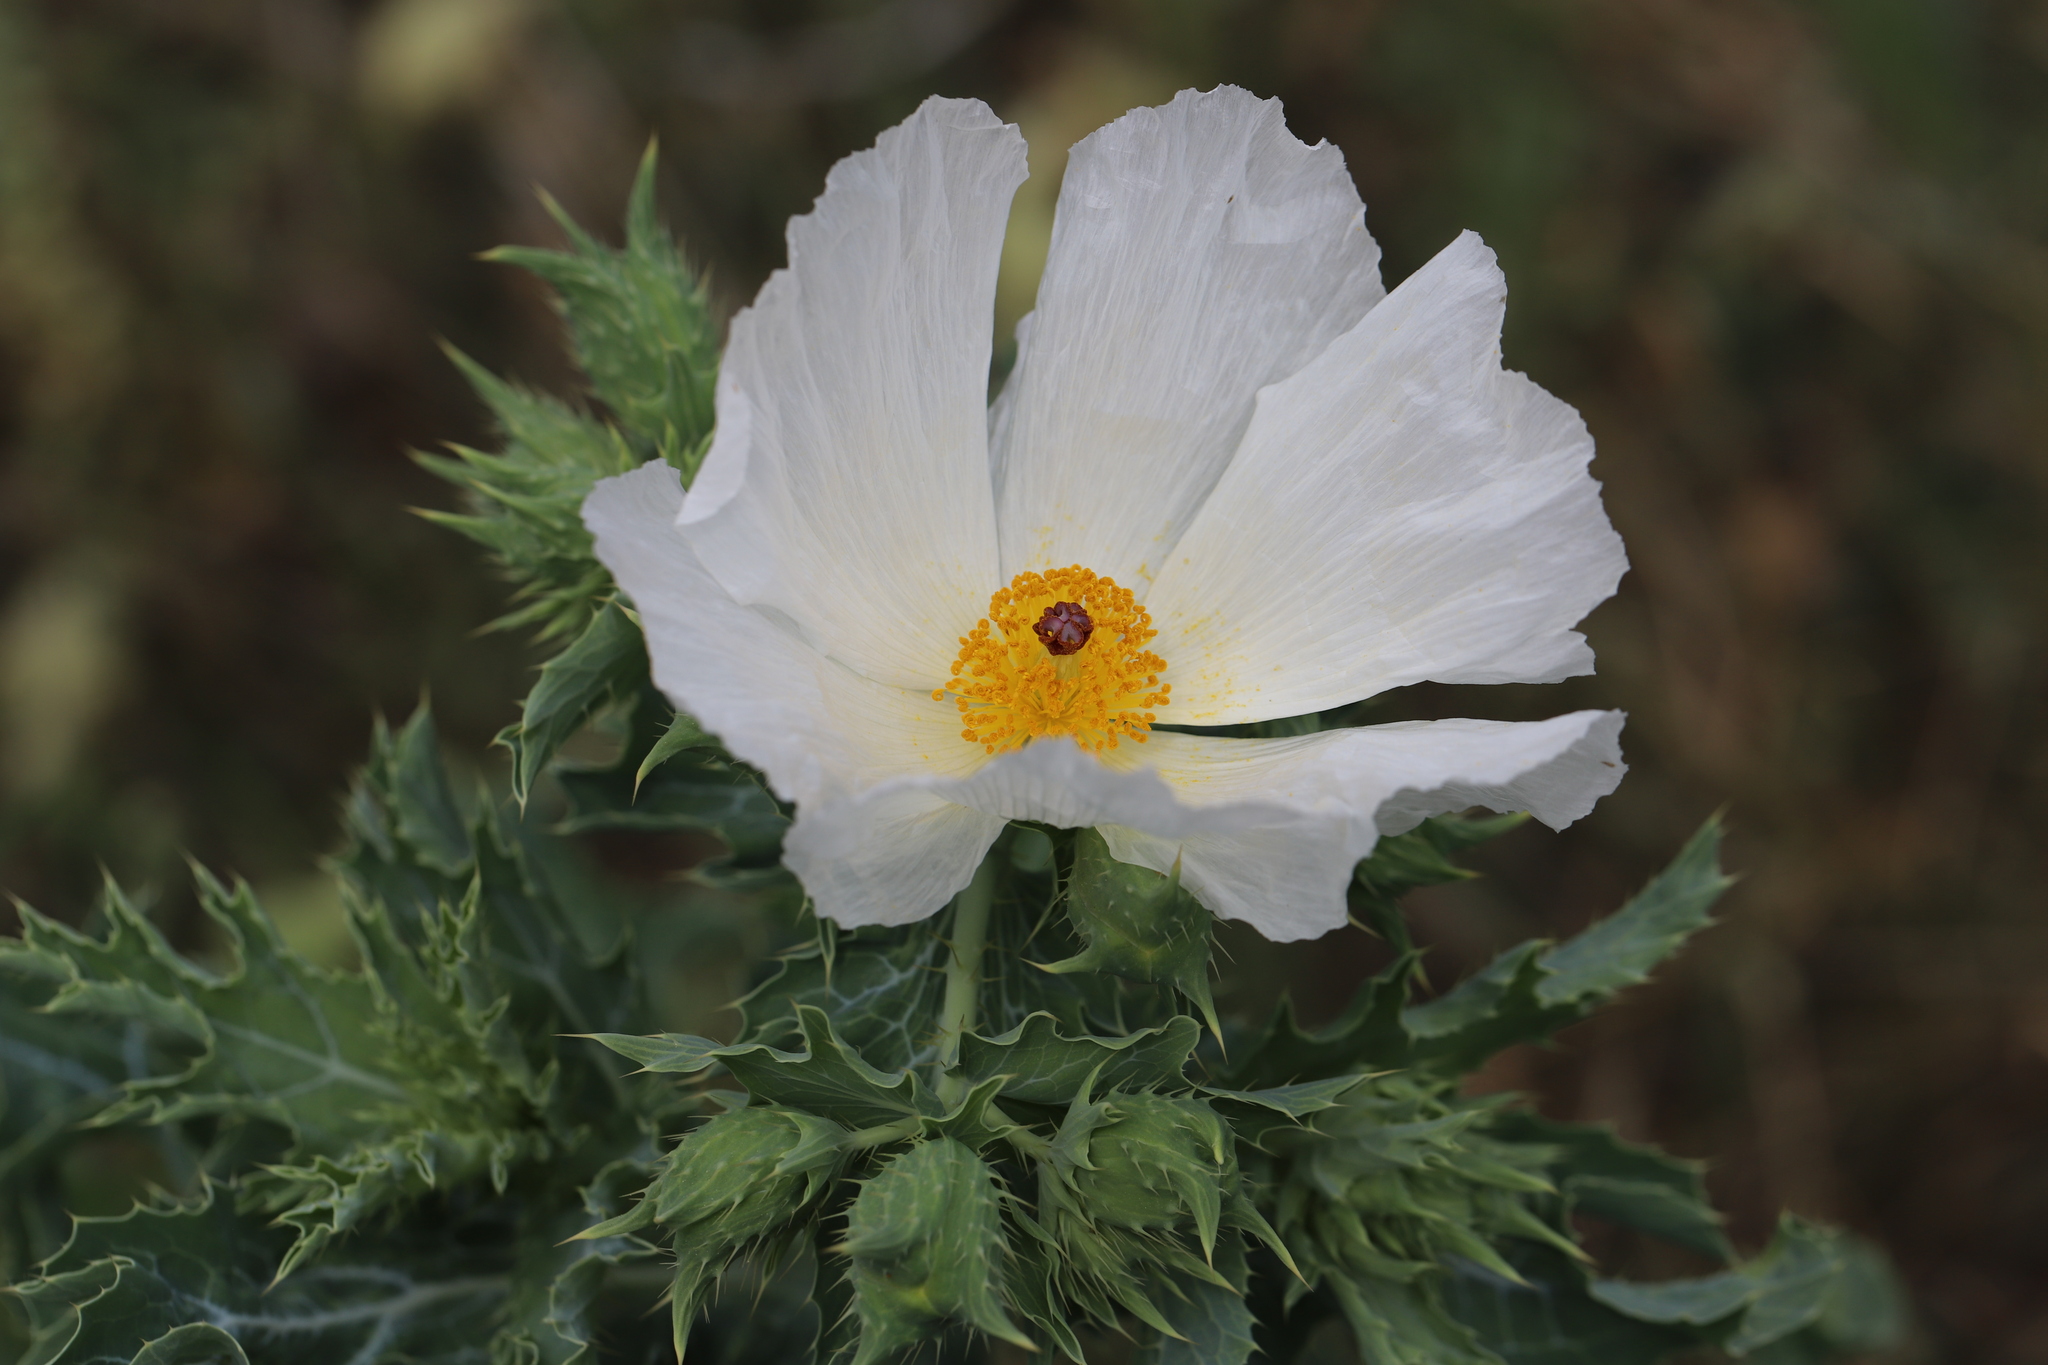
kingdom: Plantae
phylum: Tracheophyta
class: Magnoliopsida
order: Ranunculales
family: Papaveraceae
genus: Argemone
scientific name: Argemone polyanthemos
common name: Plains prickly-poppy
